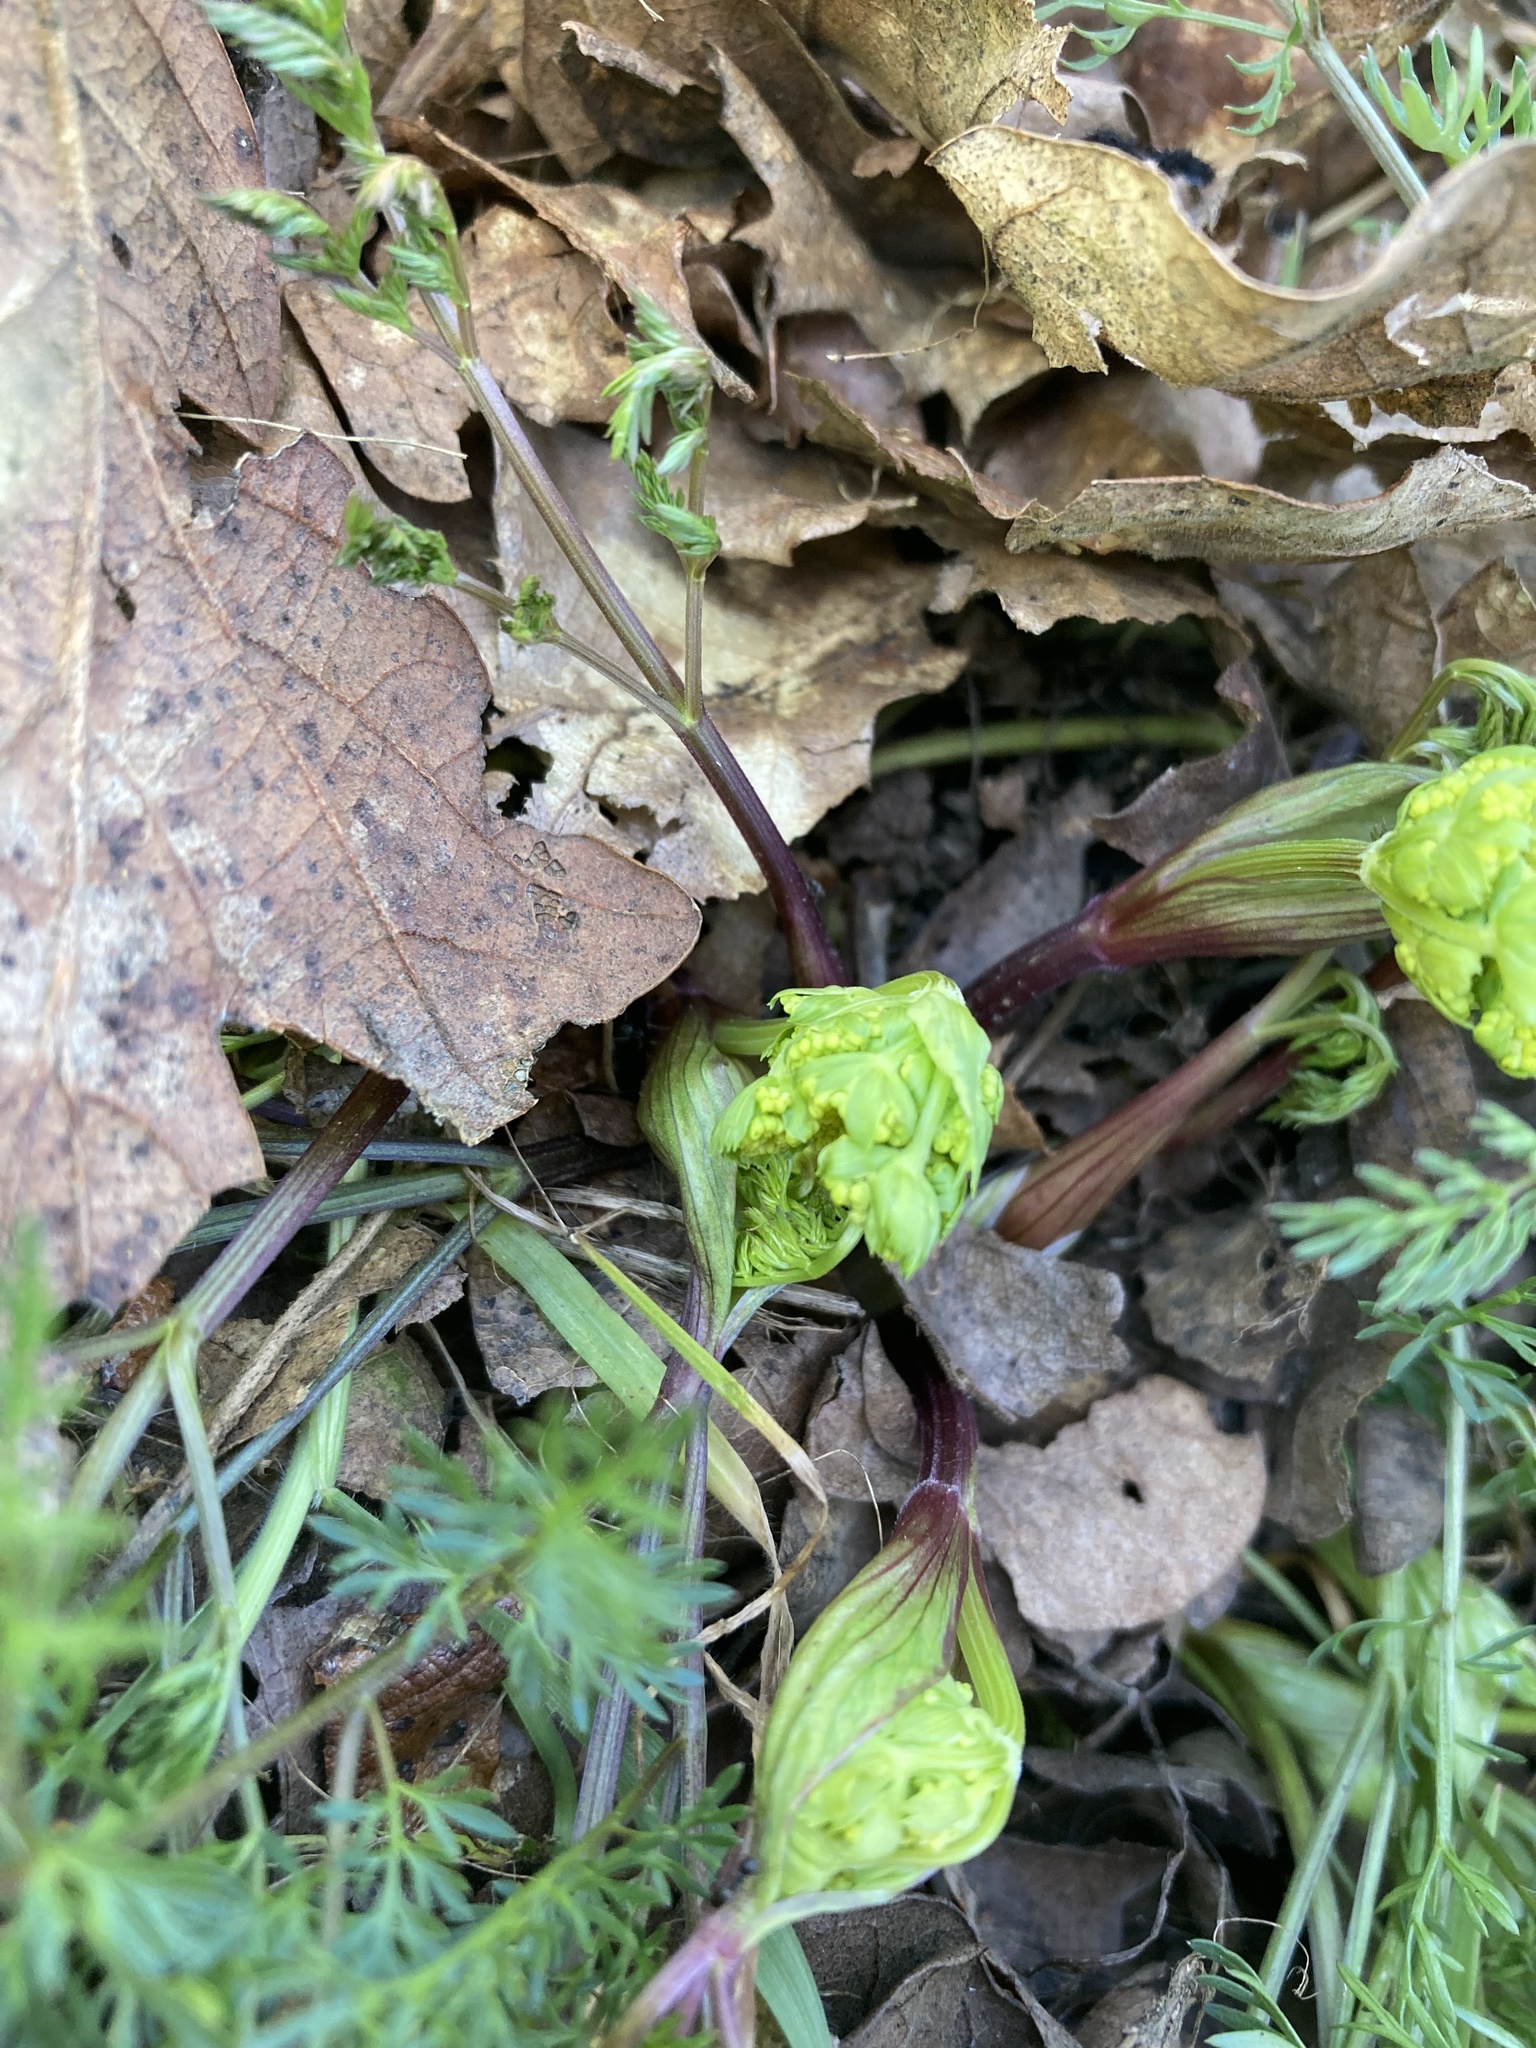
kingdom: Plantae
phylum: Tracheophyta
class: Magnoliopsida
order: Apiales
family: Apiaceae
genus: Lomatium
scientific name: Lomatium utriculatum
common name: Fine-leaf desert-parsley
